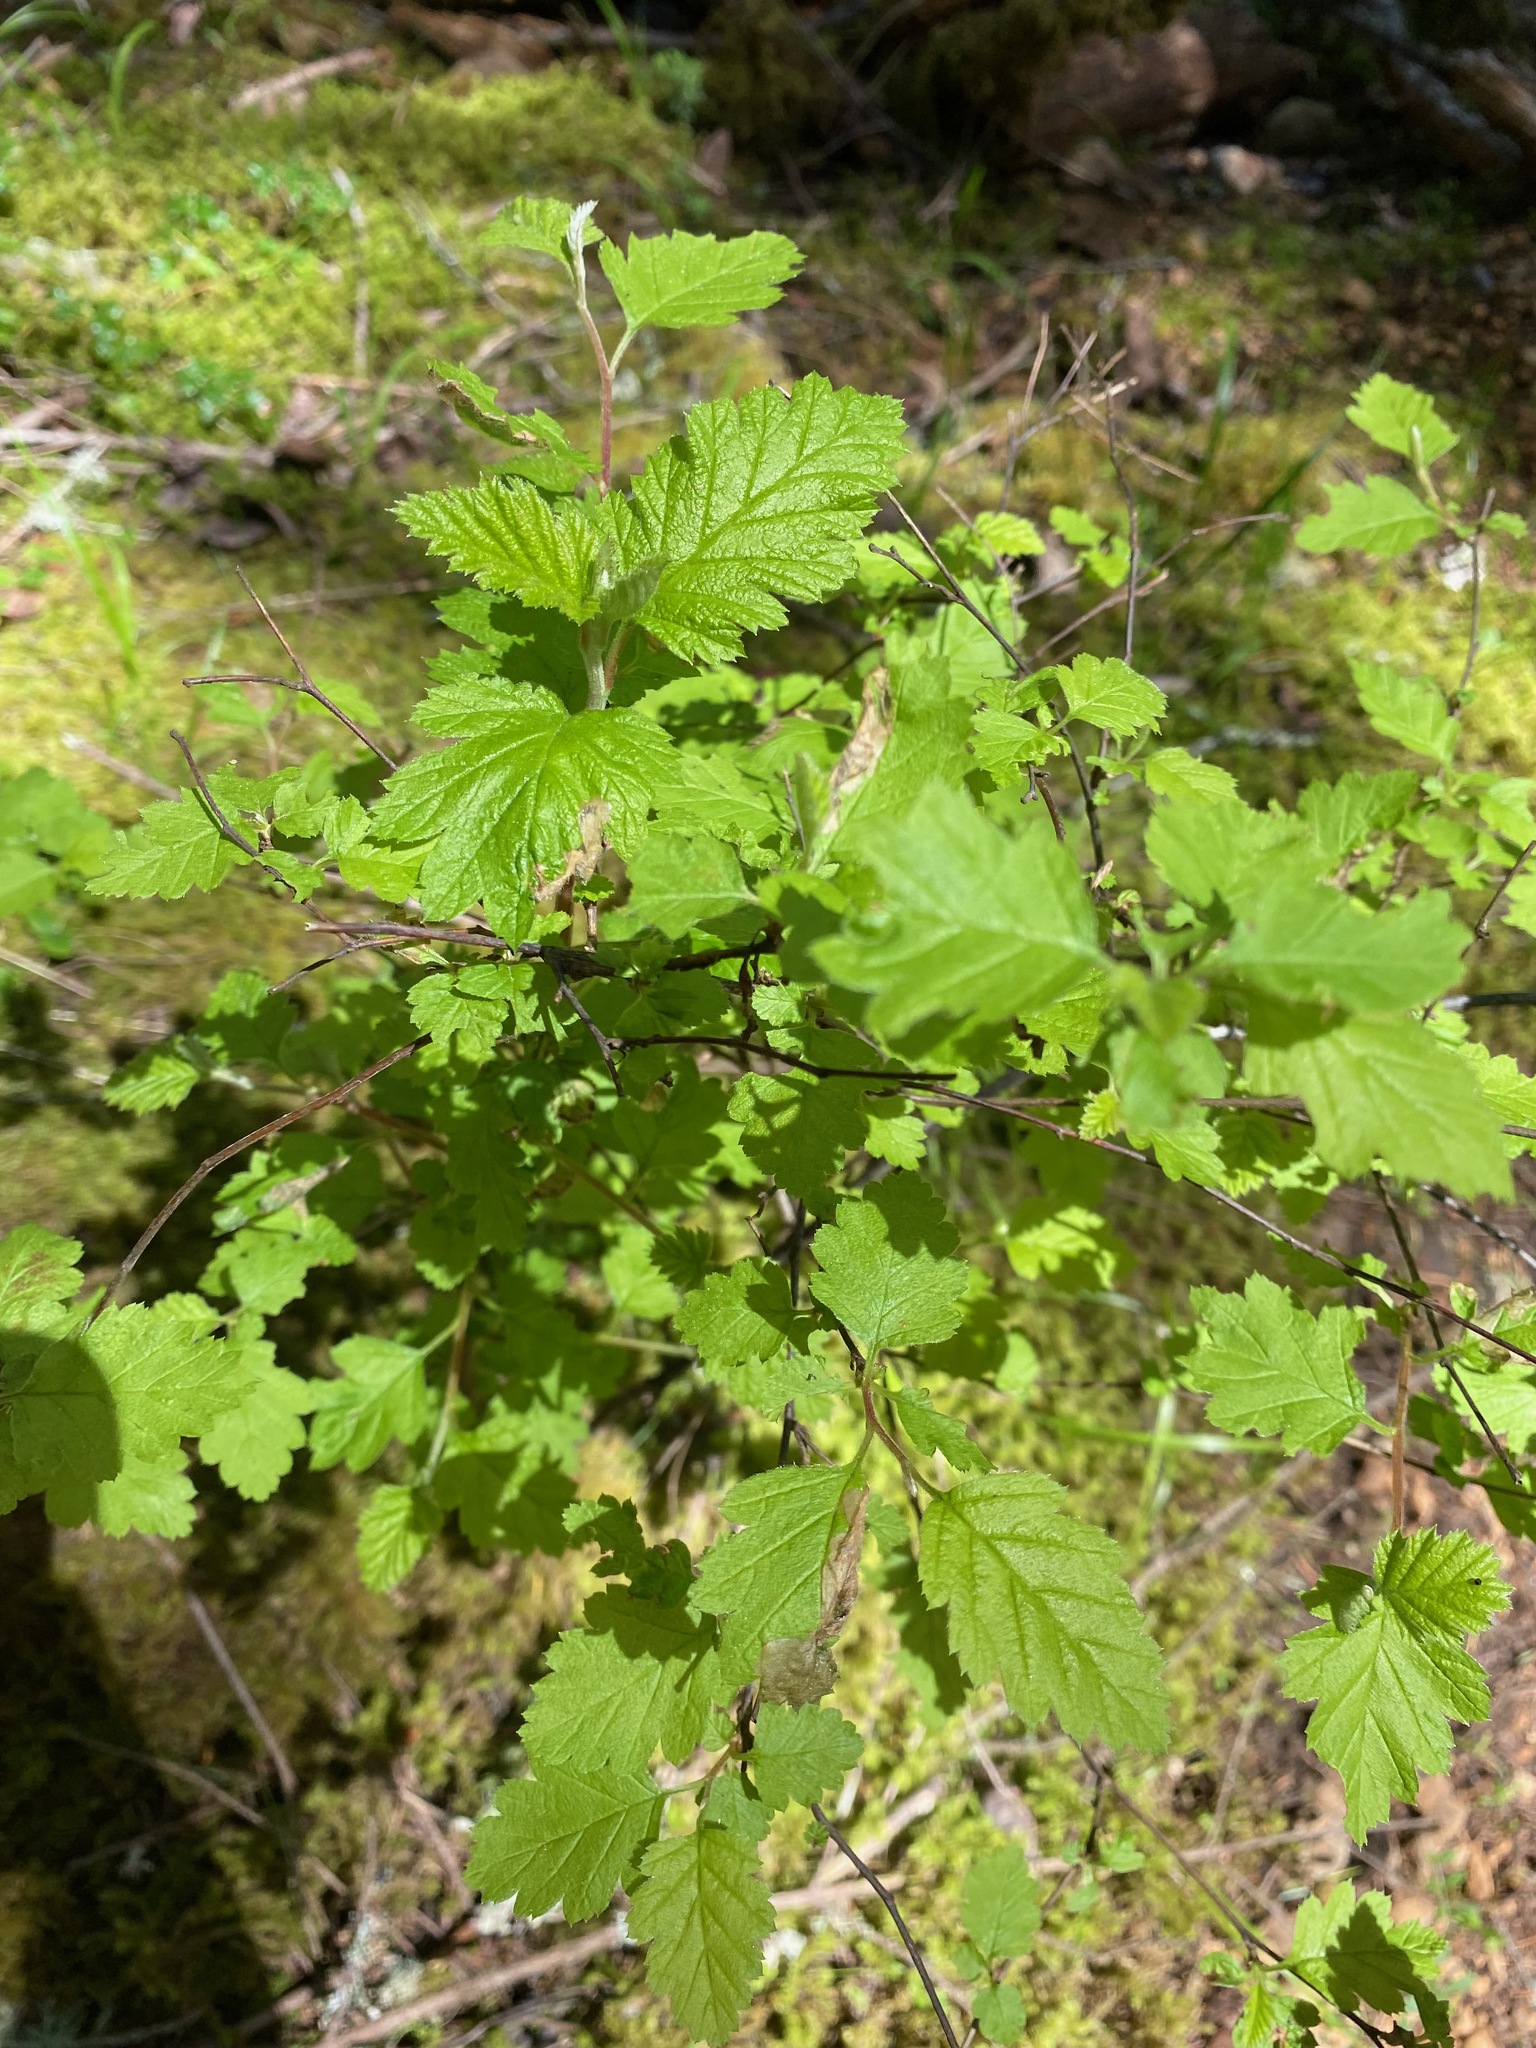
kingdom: Plantae
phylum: Tracheophyta
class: Magnoliopsida
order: Rosales
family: Rosaceae
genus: Holodiscus
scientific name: Holodiscus discolor
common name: Oceanspray
